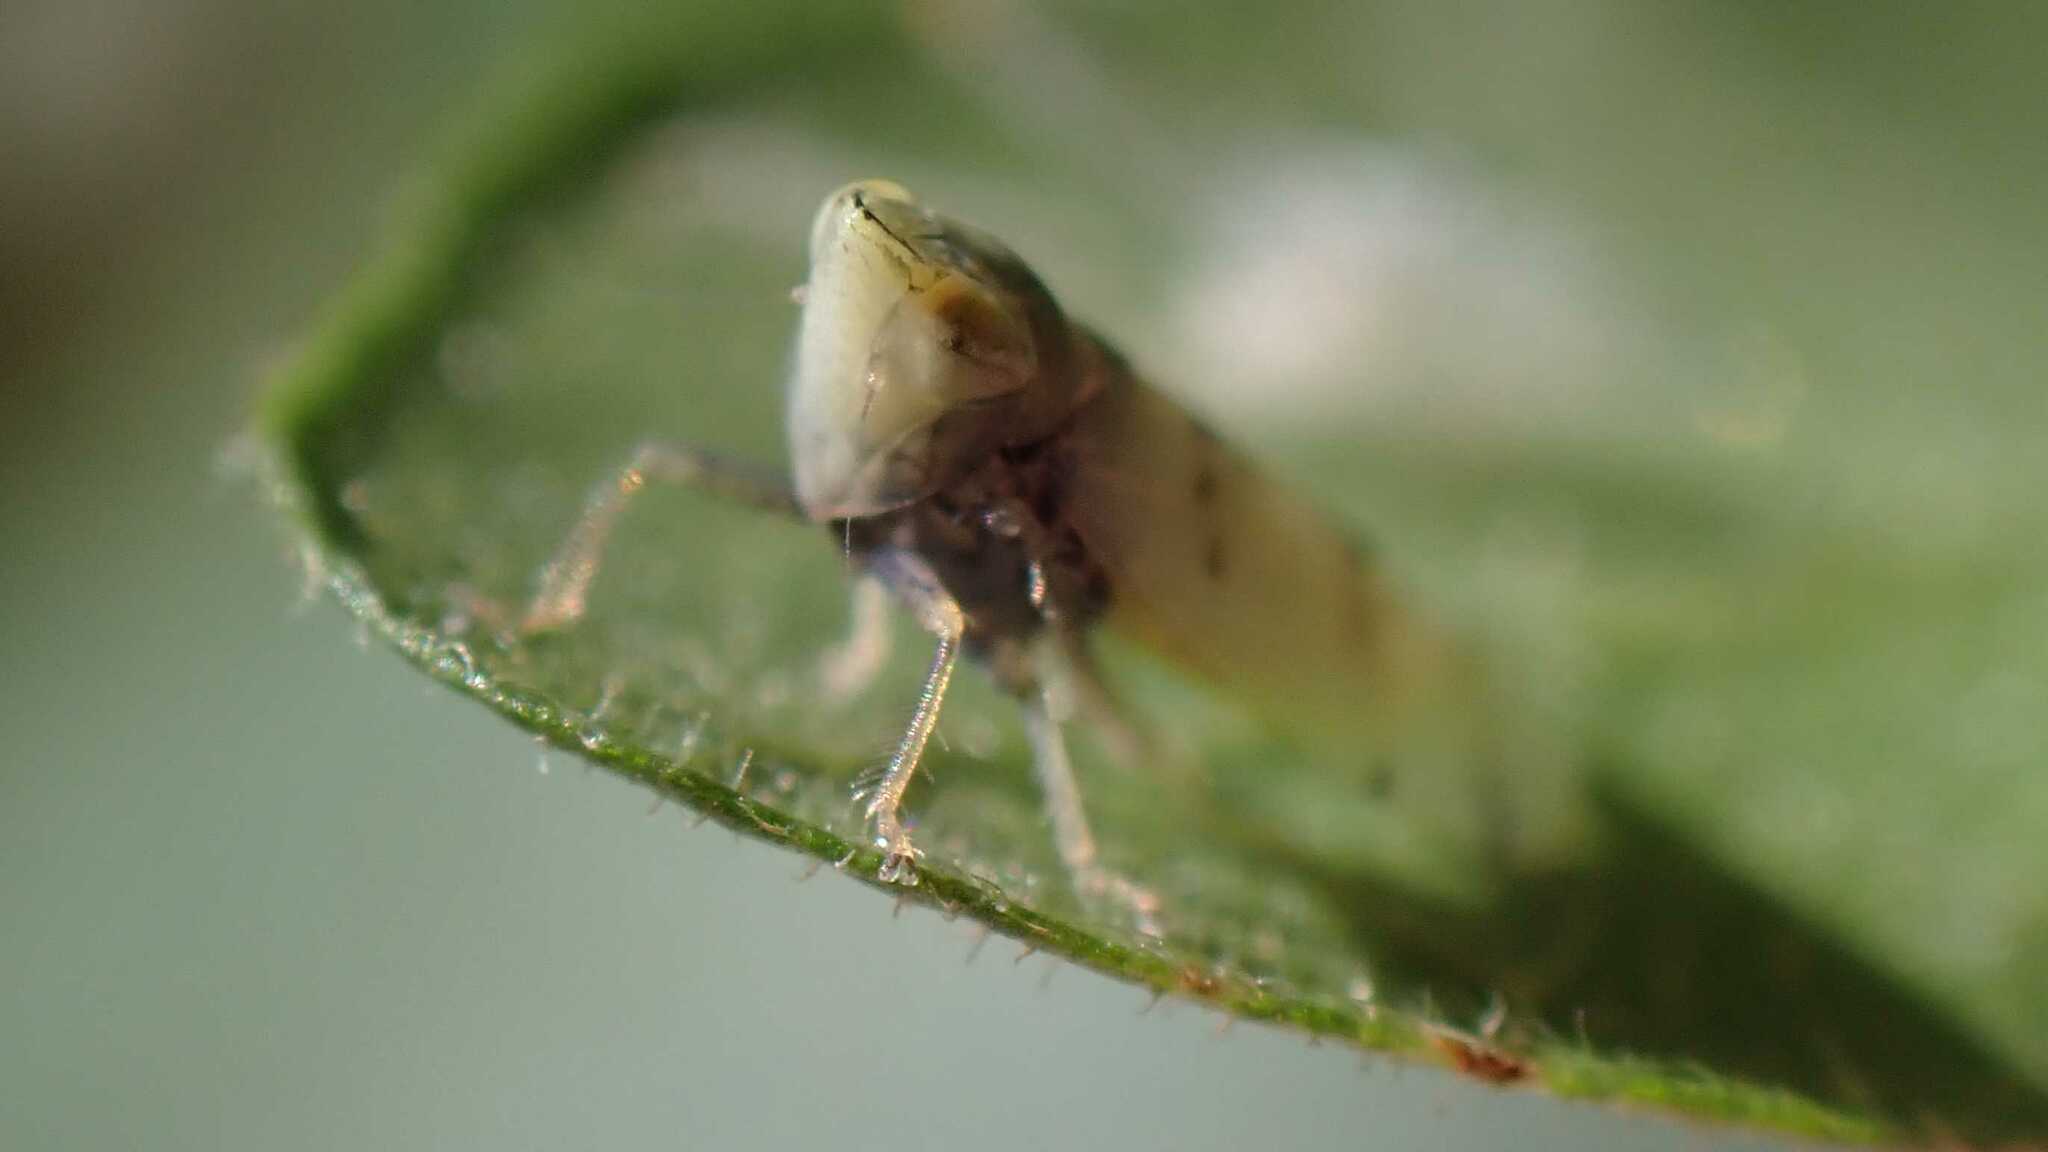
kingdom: Animalia
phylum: Arthropoda
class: Insecta
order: Hemiptera
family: Cicadellidae
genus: Japananus
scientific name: Japananus hyalinus
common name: The japanese maple leafhopper
